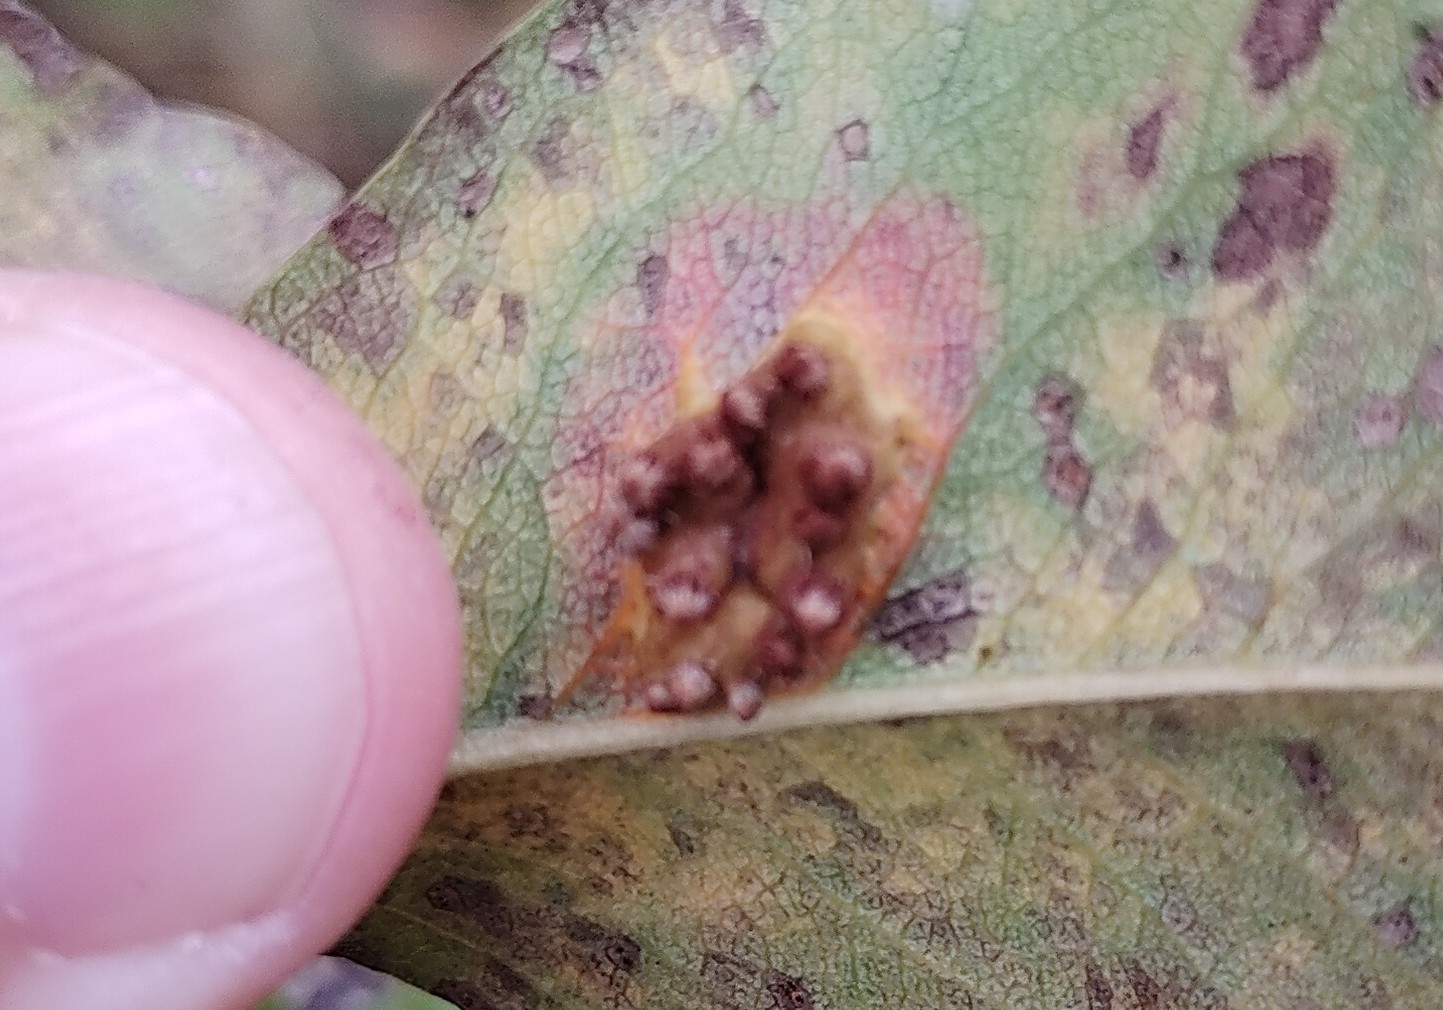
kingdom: Fungi
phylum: Basidiomycota
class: Pucciniomycetes
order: Pucciniales
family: Gymnosporangiaceae
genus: Gymnosporangium
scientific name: Gymnosporangium sabinae
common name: Pear trellis rust fungus
